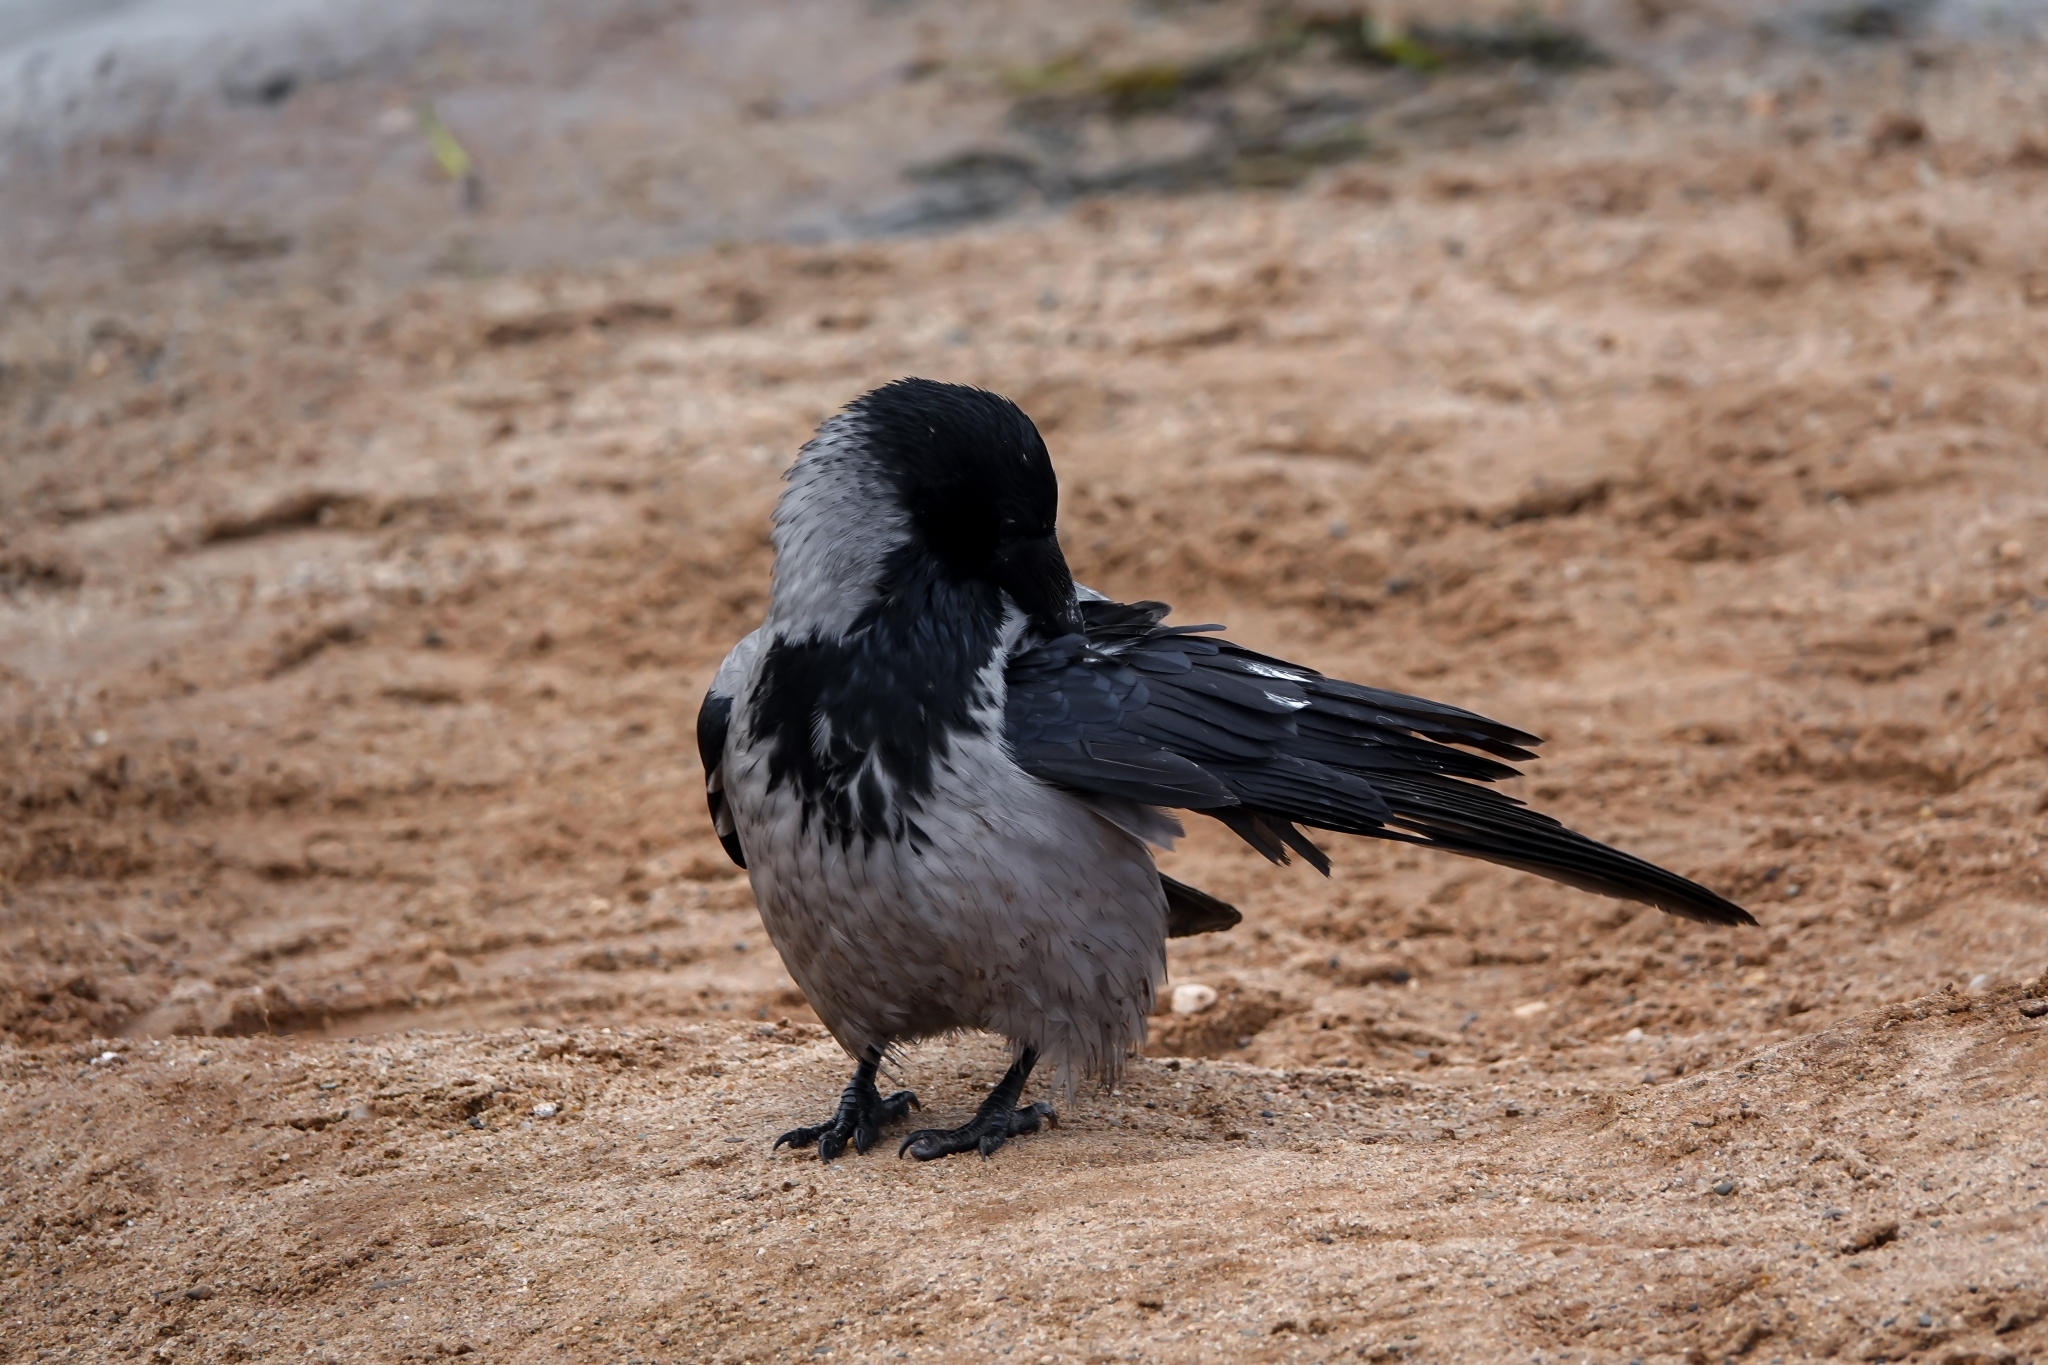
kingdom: Animalia
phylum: Chordata
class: Aves
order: Passeriformes
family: Corvidae
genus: Corvus
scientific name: Corvus cornix
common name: Hooded crow
